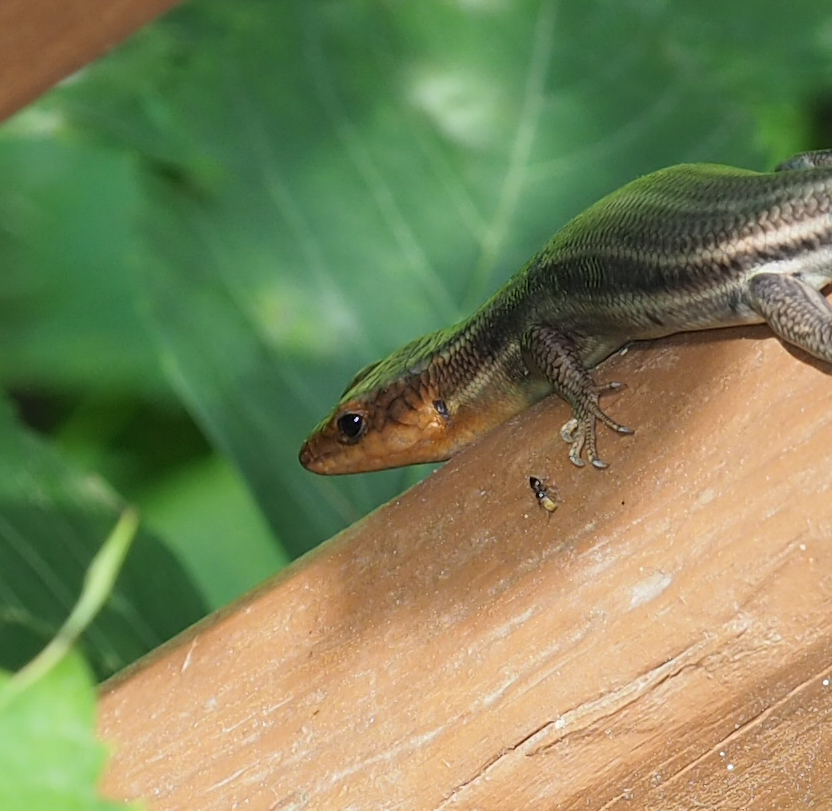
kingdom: Animalia
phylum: Chordata
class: Squamata
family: Scincidae
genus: Plestiodon
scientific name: Plestiodon fasciatus
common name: Five-lined skink
